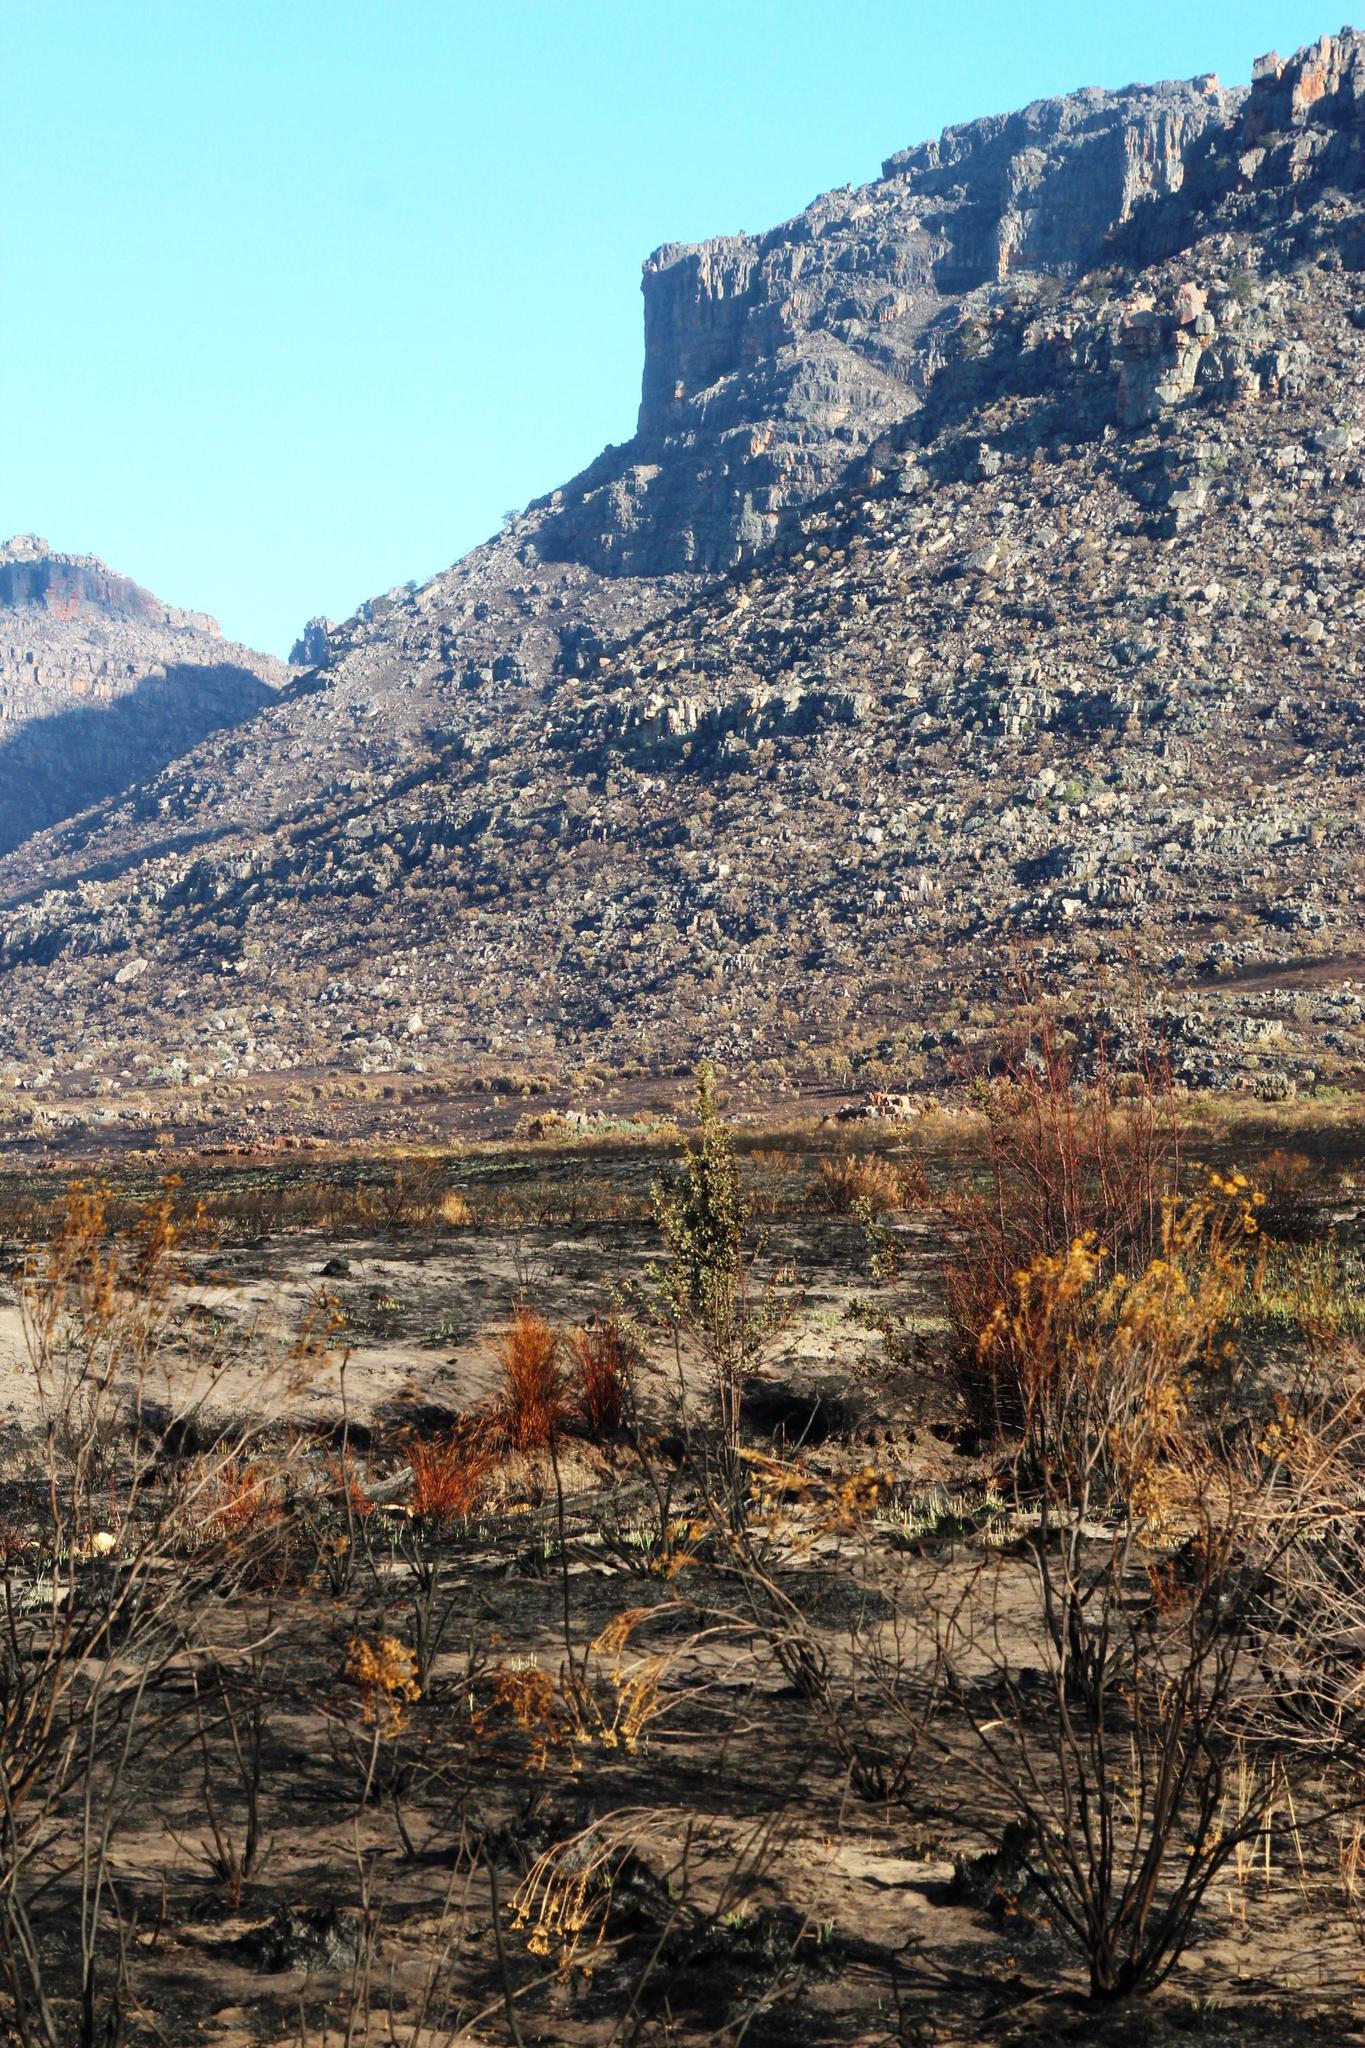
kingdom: Plantae
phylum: Tracheophyta
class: Magnoliopsida
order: Fagales
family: Fagaceae
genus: Quercus
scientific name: Quercus robur
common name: Pedunculate oak
